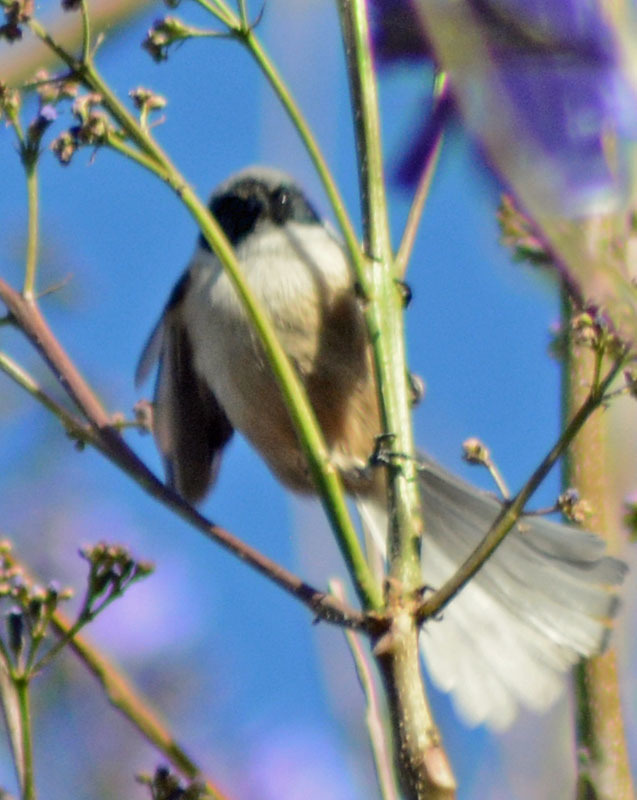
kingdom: Animalia
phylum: Chordata
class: Aves
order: Passeriformes
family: Aegithalidae
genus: Psaltriparus
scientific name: Psaltriparus minimus
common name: American bushtit
